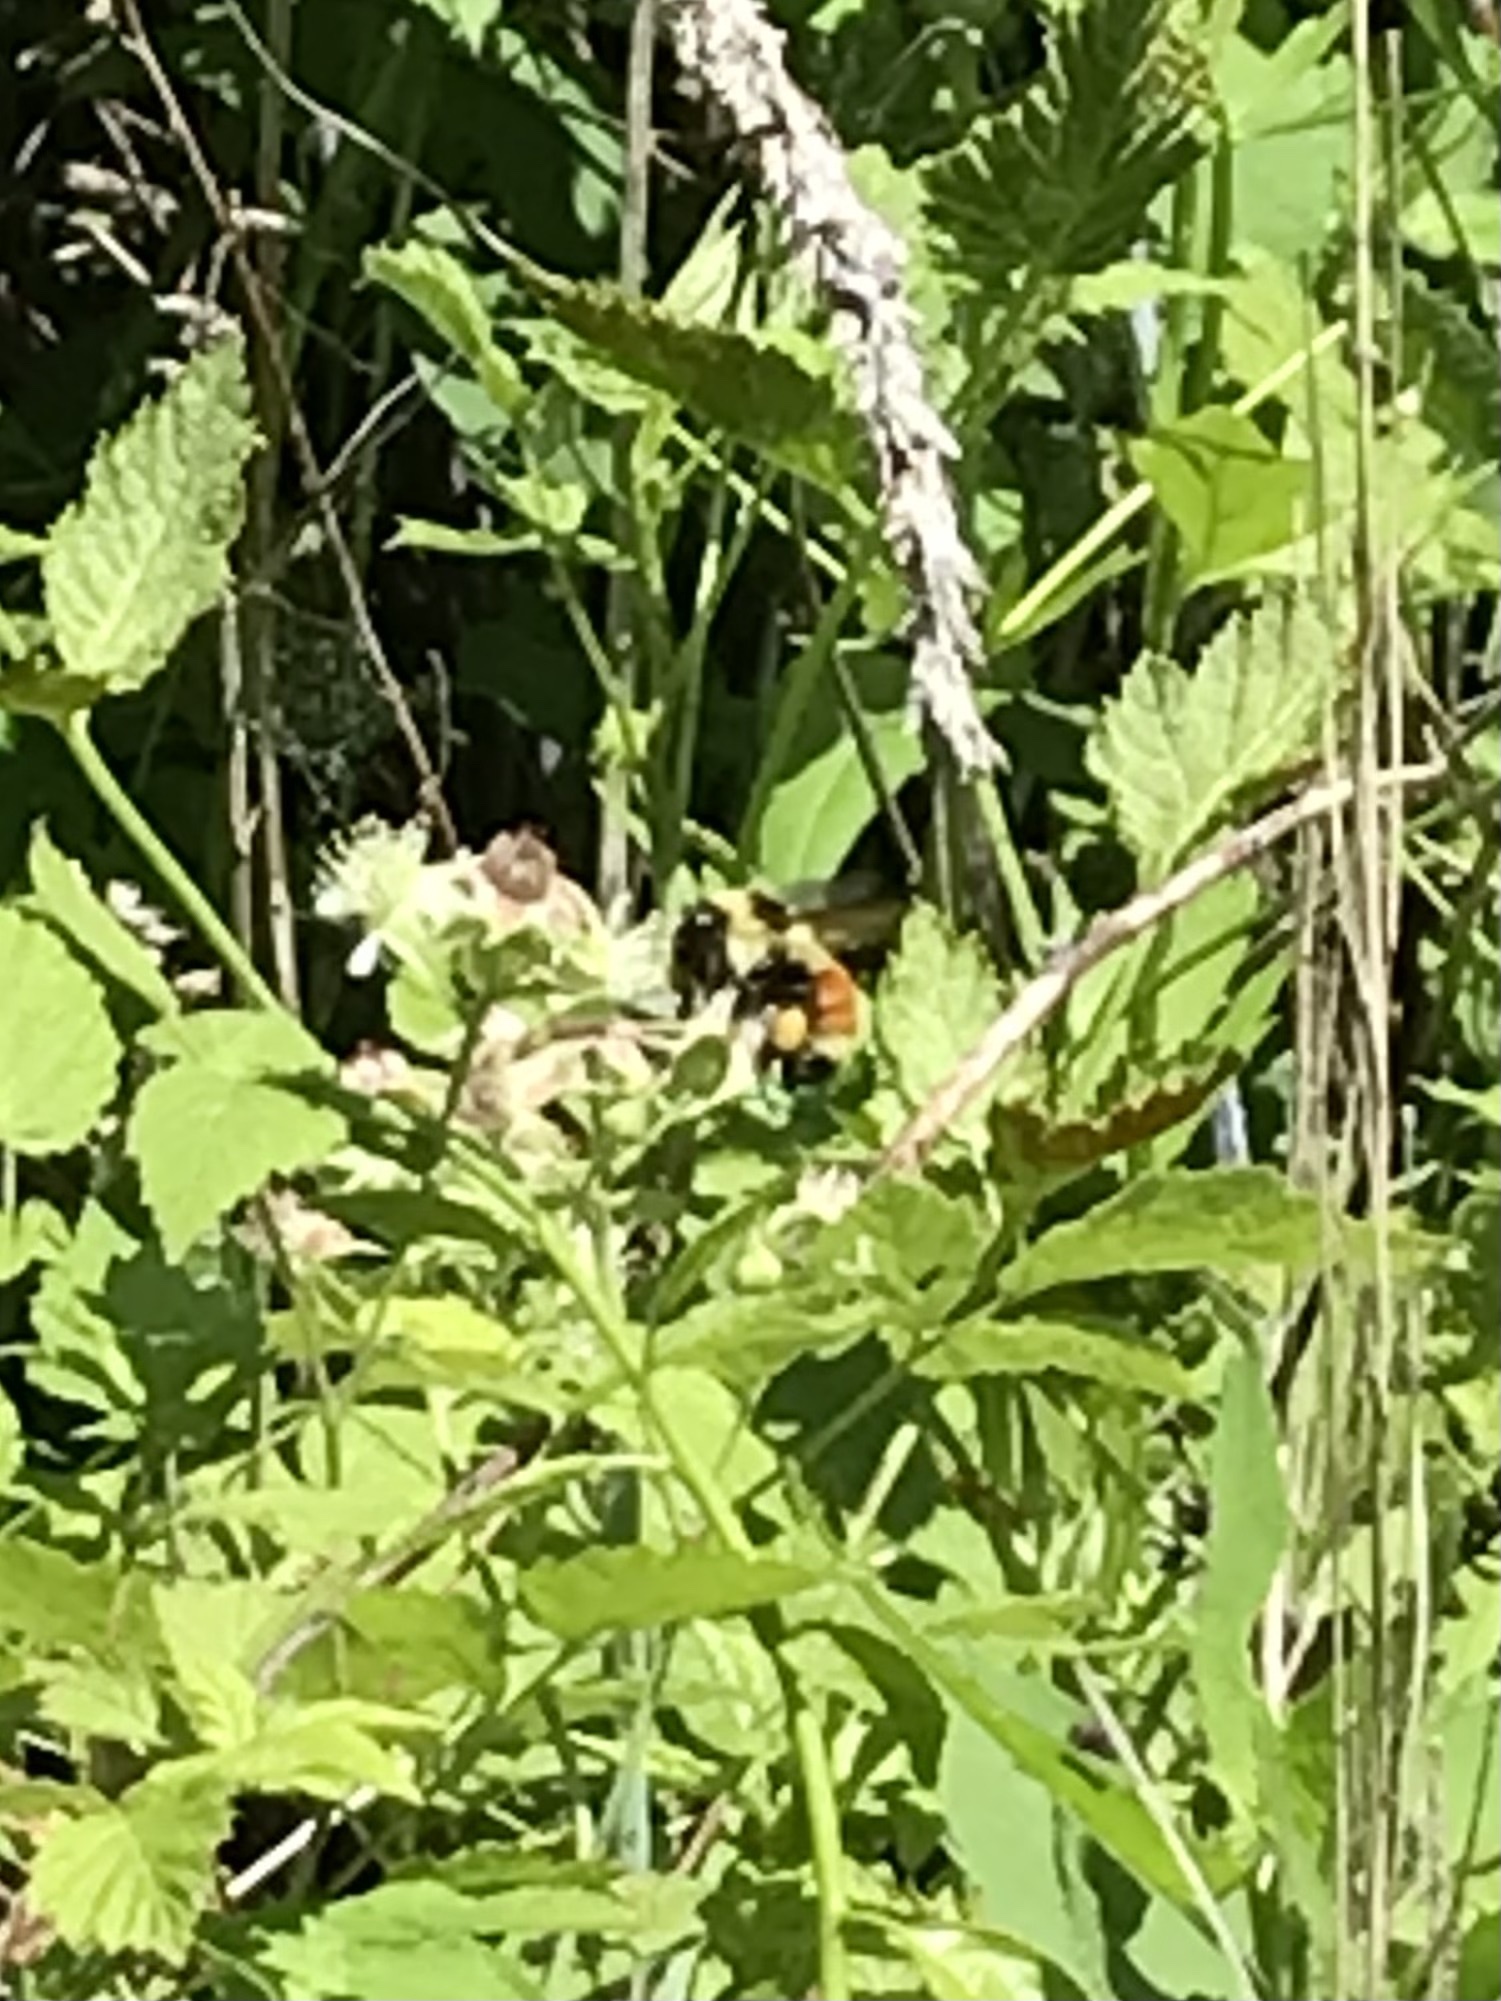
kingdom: Animalia
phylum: Arthropoda
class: Insecta
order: Hymenoptera
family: Apidae
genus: Bombus
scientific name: Bombus ternarius
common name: Tri-colored bumble bee
